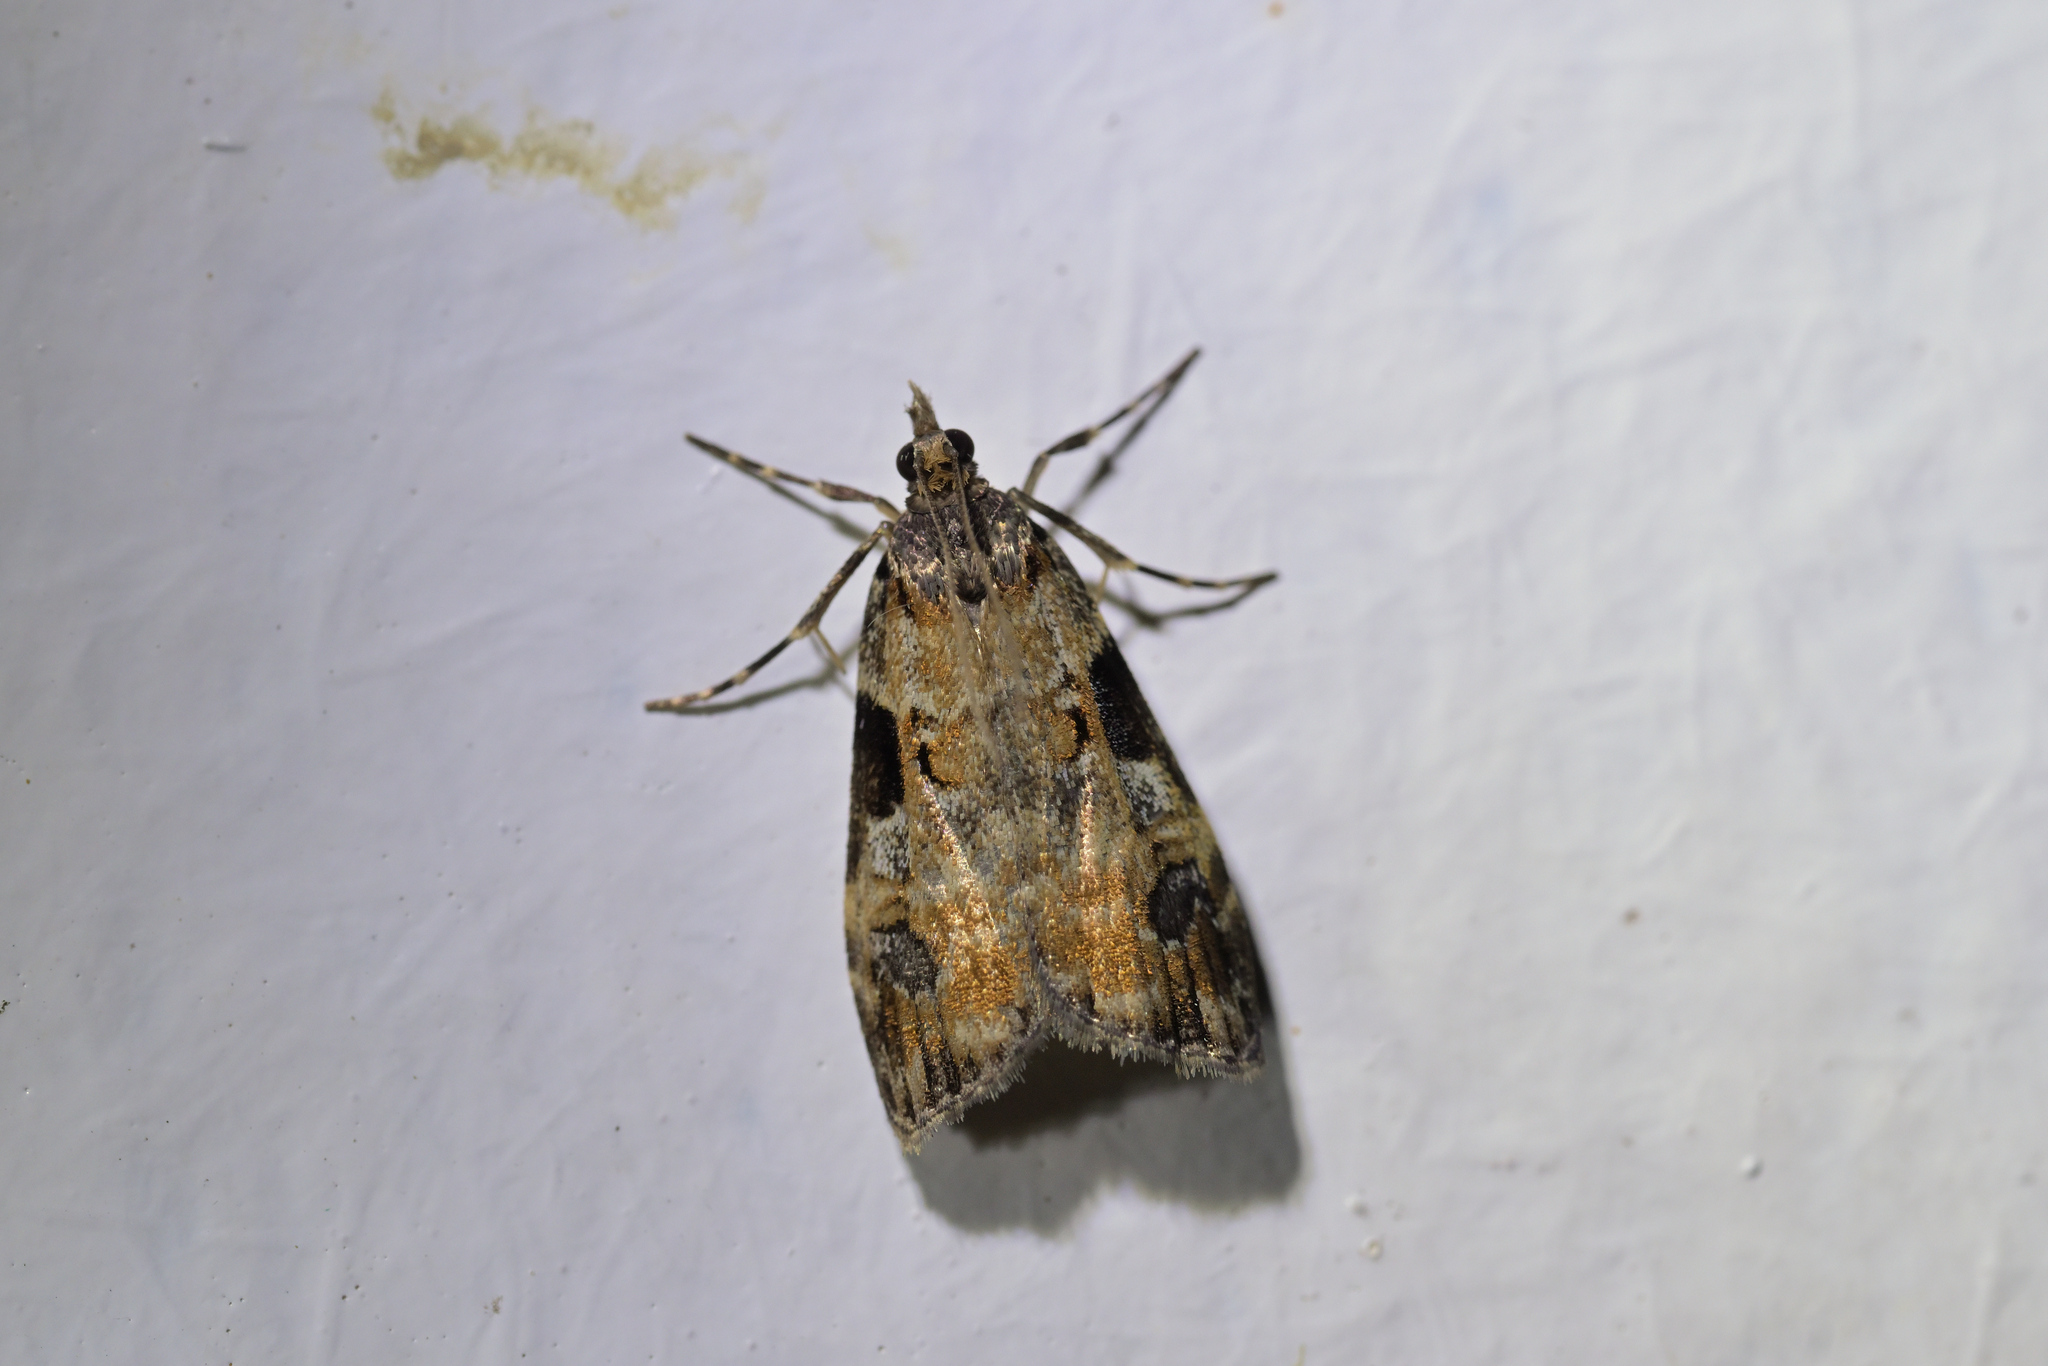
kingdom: Animalia
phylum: Arthropoda
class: Insecta
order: Lepidoptera
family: Crambidae
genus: Scoparia
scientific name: Scoparia acharis
